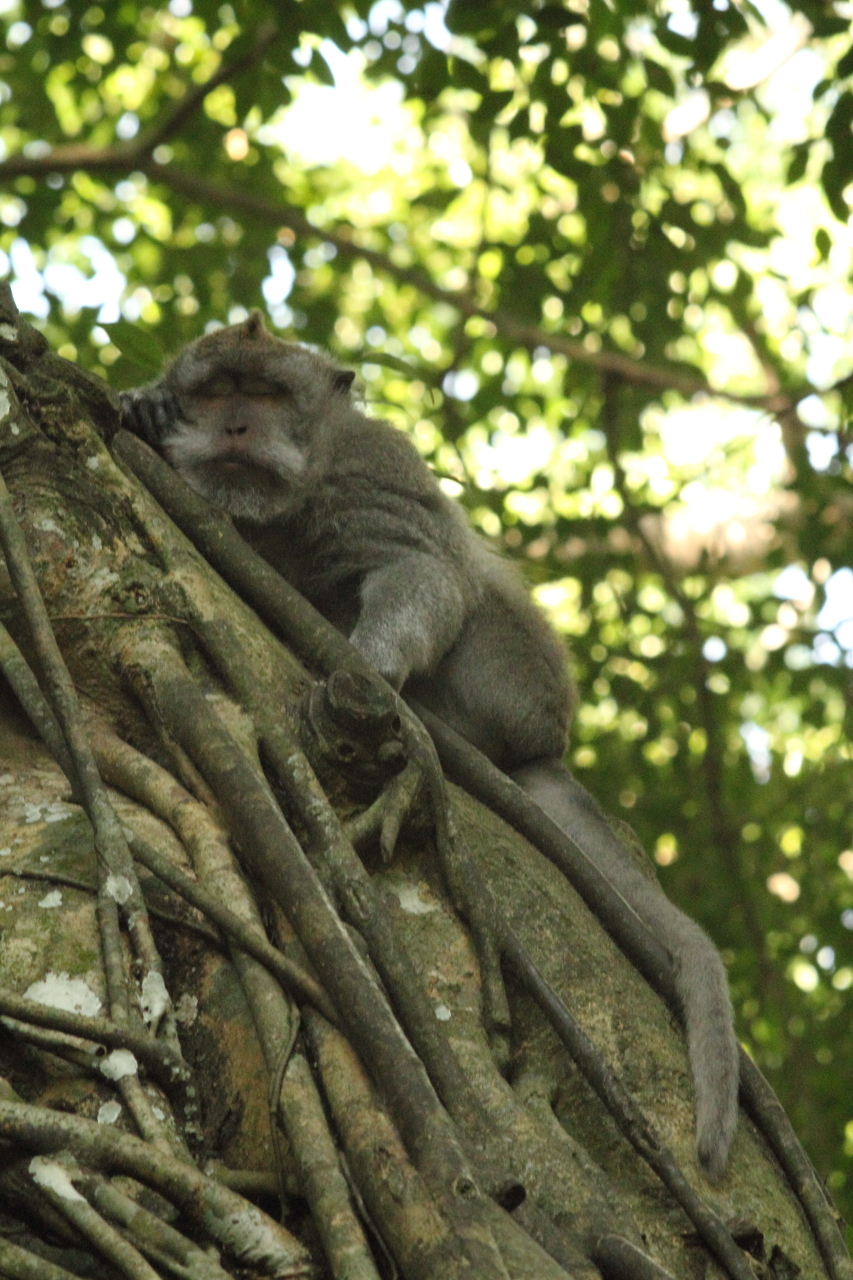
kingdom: Animalia
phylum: Chordata
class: Mammalia
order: Primates
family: Cercopithecidae
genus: Macaca
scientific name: Macaca fascicularis
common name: Crab-eating macaque
